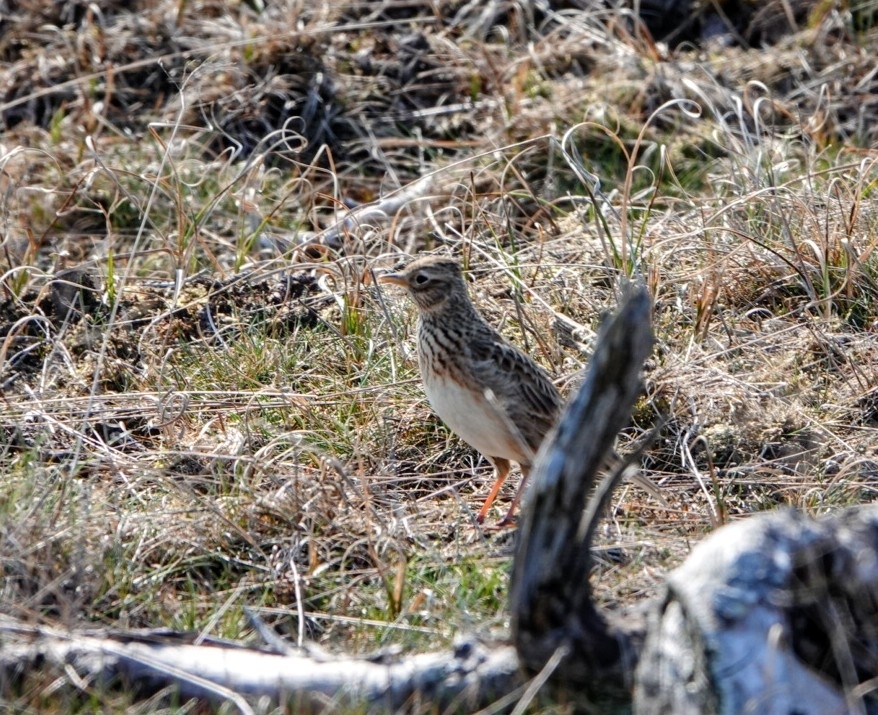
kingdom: Animalia
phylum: Chordata
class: Aves
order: Passeriformes
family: Alaudidae
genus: Alauda
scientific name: Alauda arvensis
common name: Eurasian skylark
